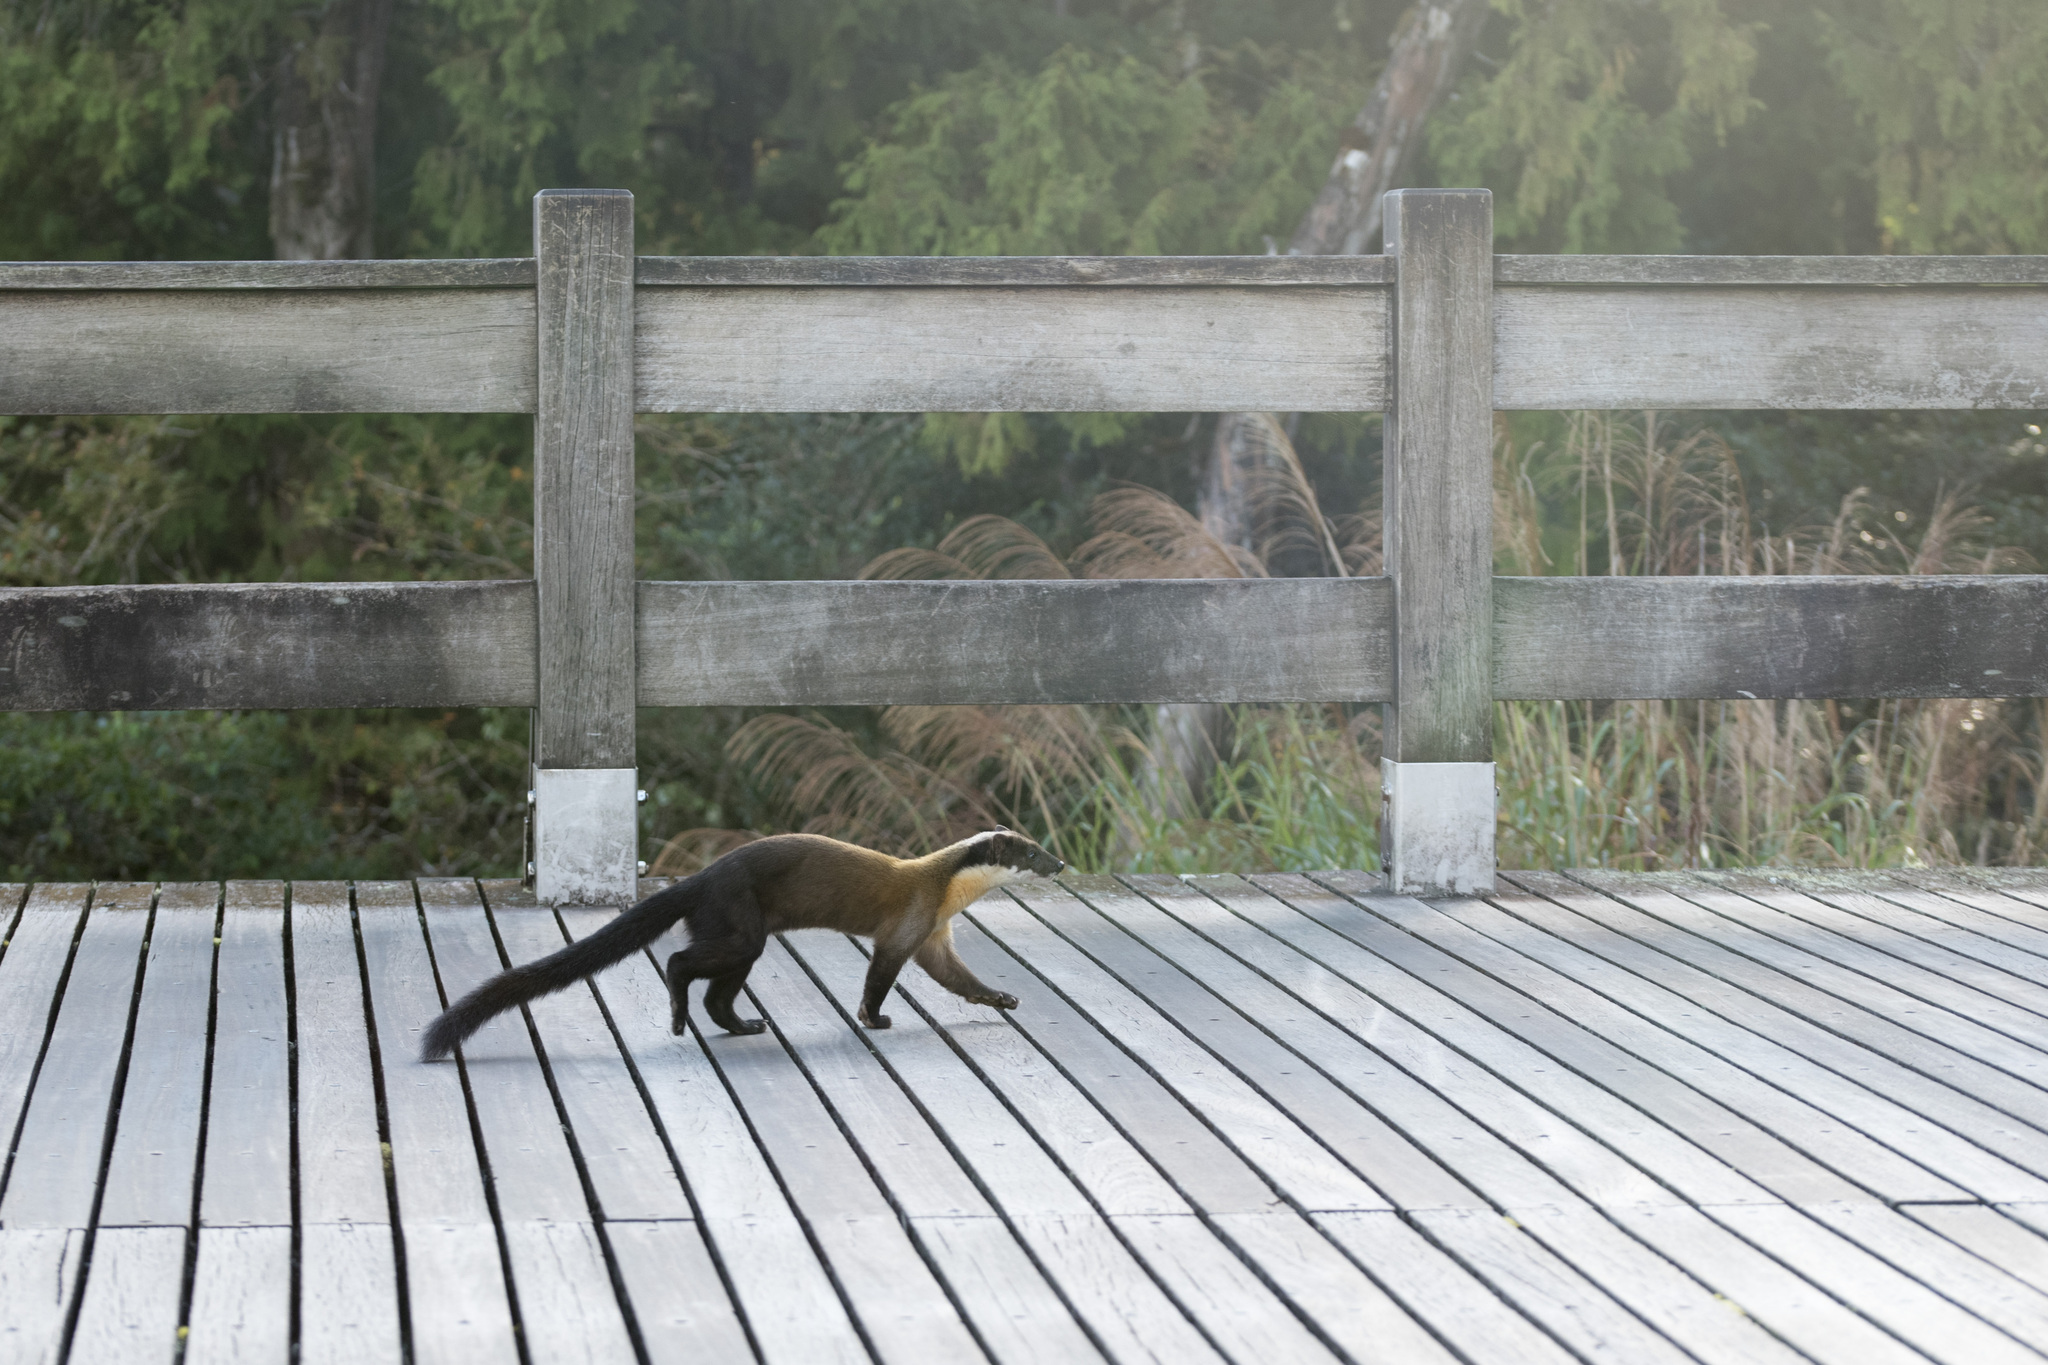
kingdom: Animalia
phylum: Chordata
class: Mammalia
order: Carnivora
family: Mustelidae
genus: Martes
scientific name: Martes flavigula
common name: Yellow-throated marten
